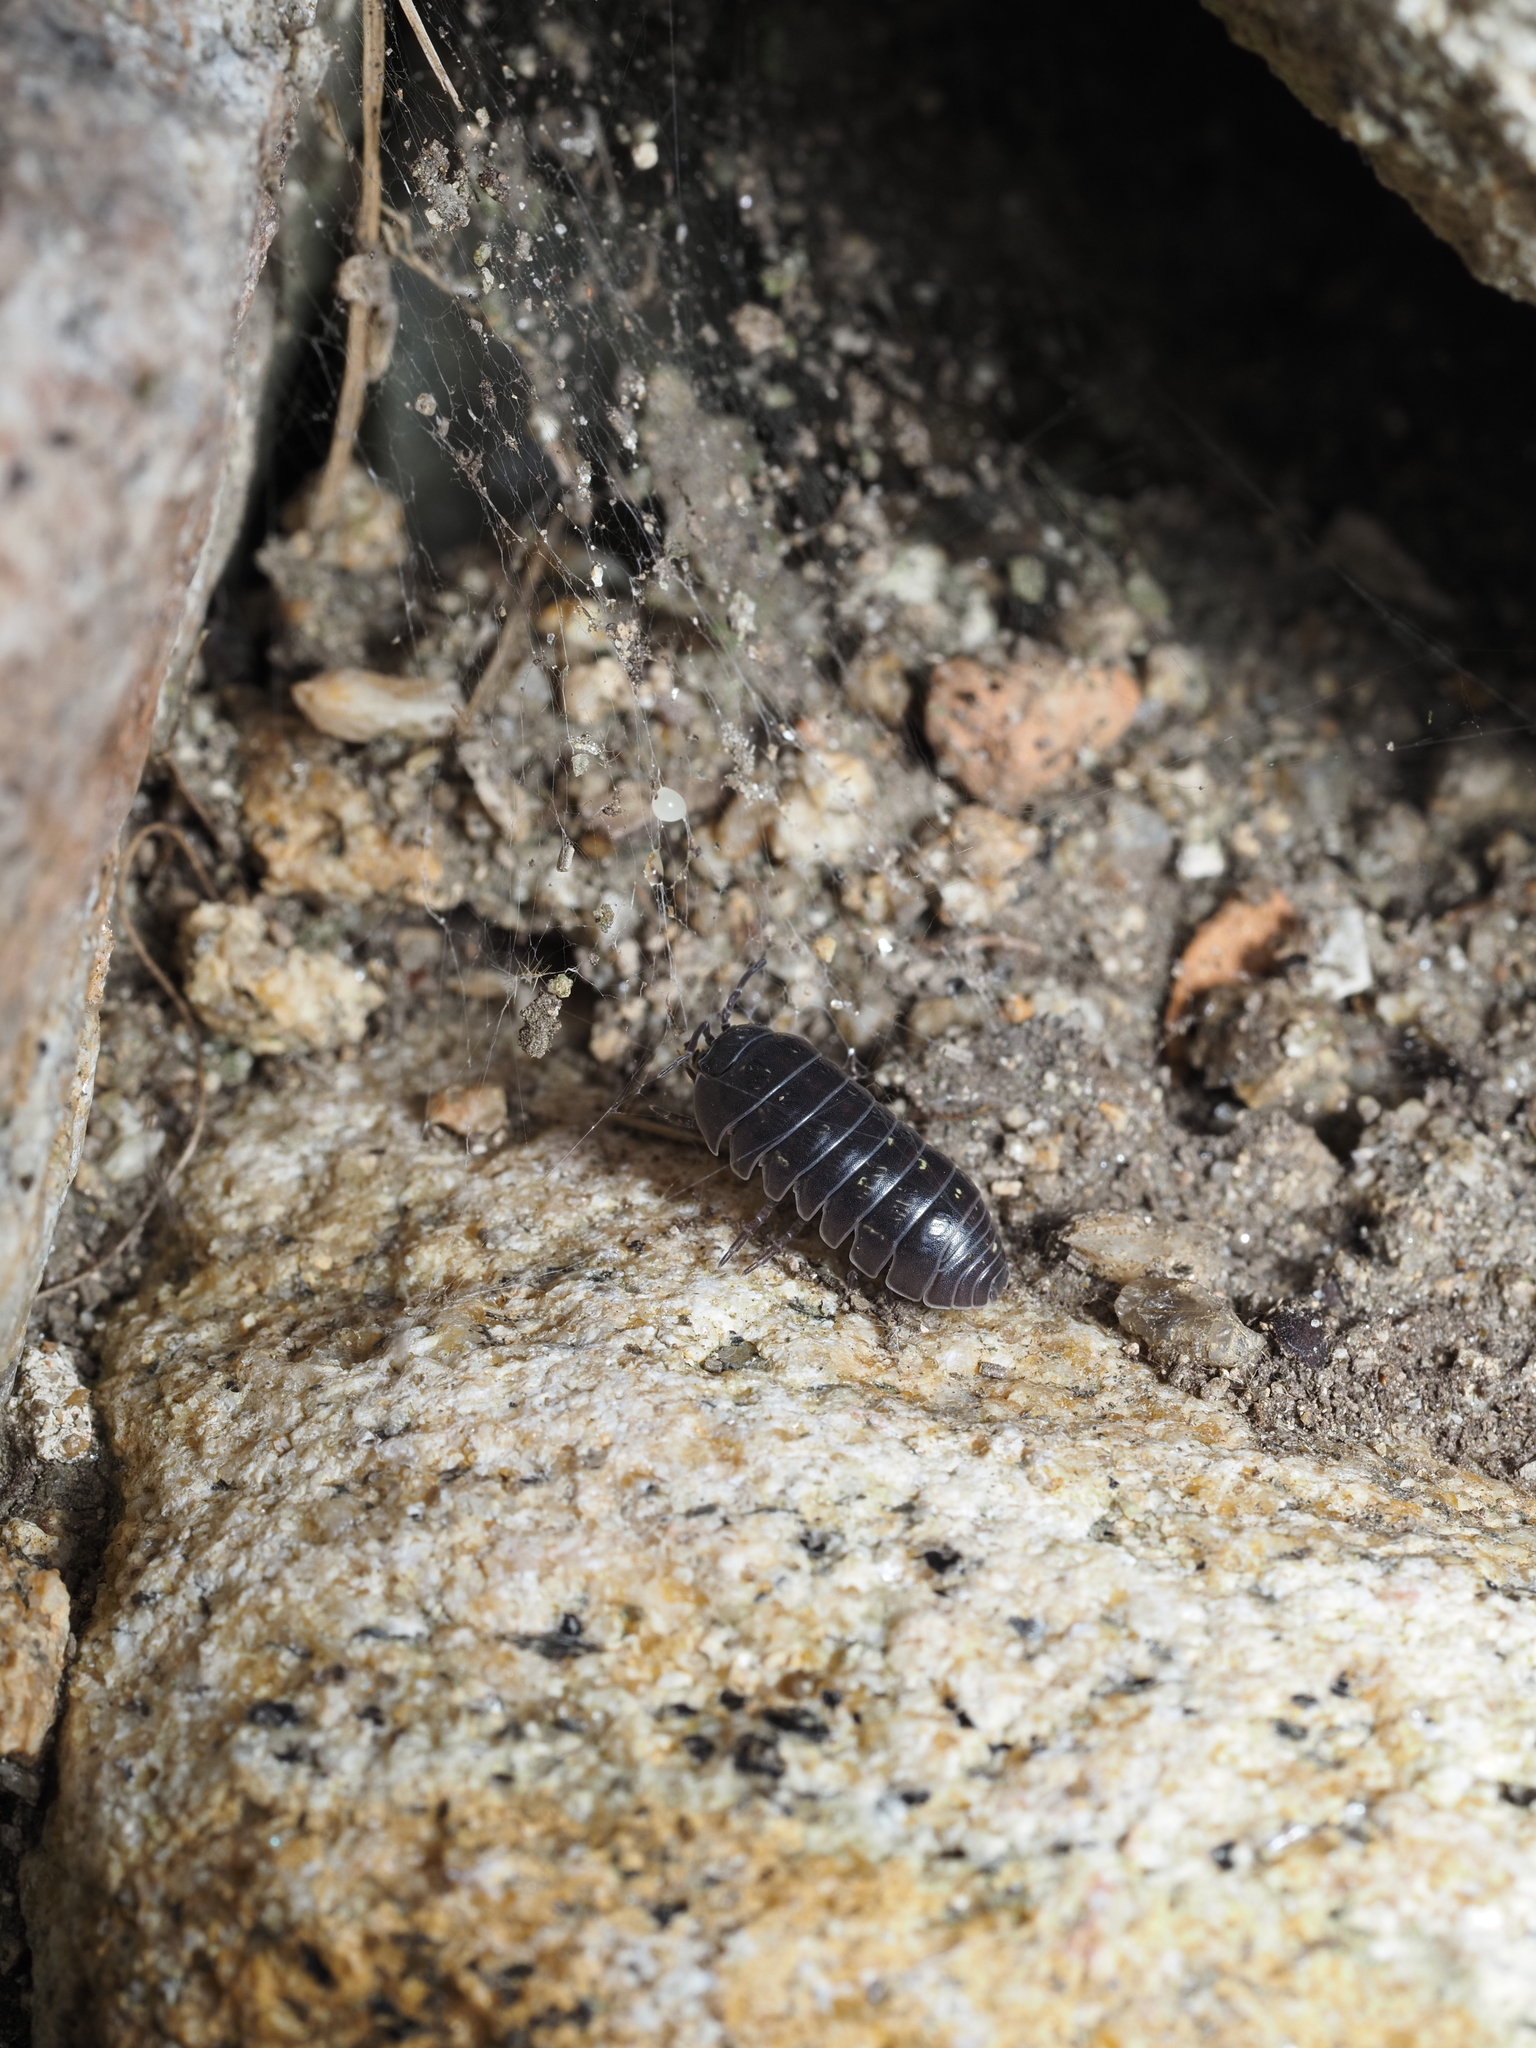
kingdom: Animalia
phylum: Arthropoda
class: Malacostraca
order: Isopoda
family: Armadillidiidae
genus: Armadillidium
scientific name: Armadillidium vulgare
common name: Common pill woodlouse
